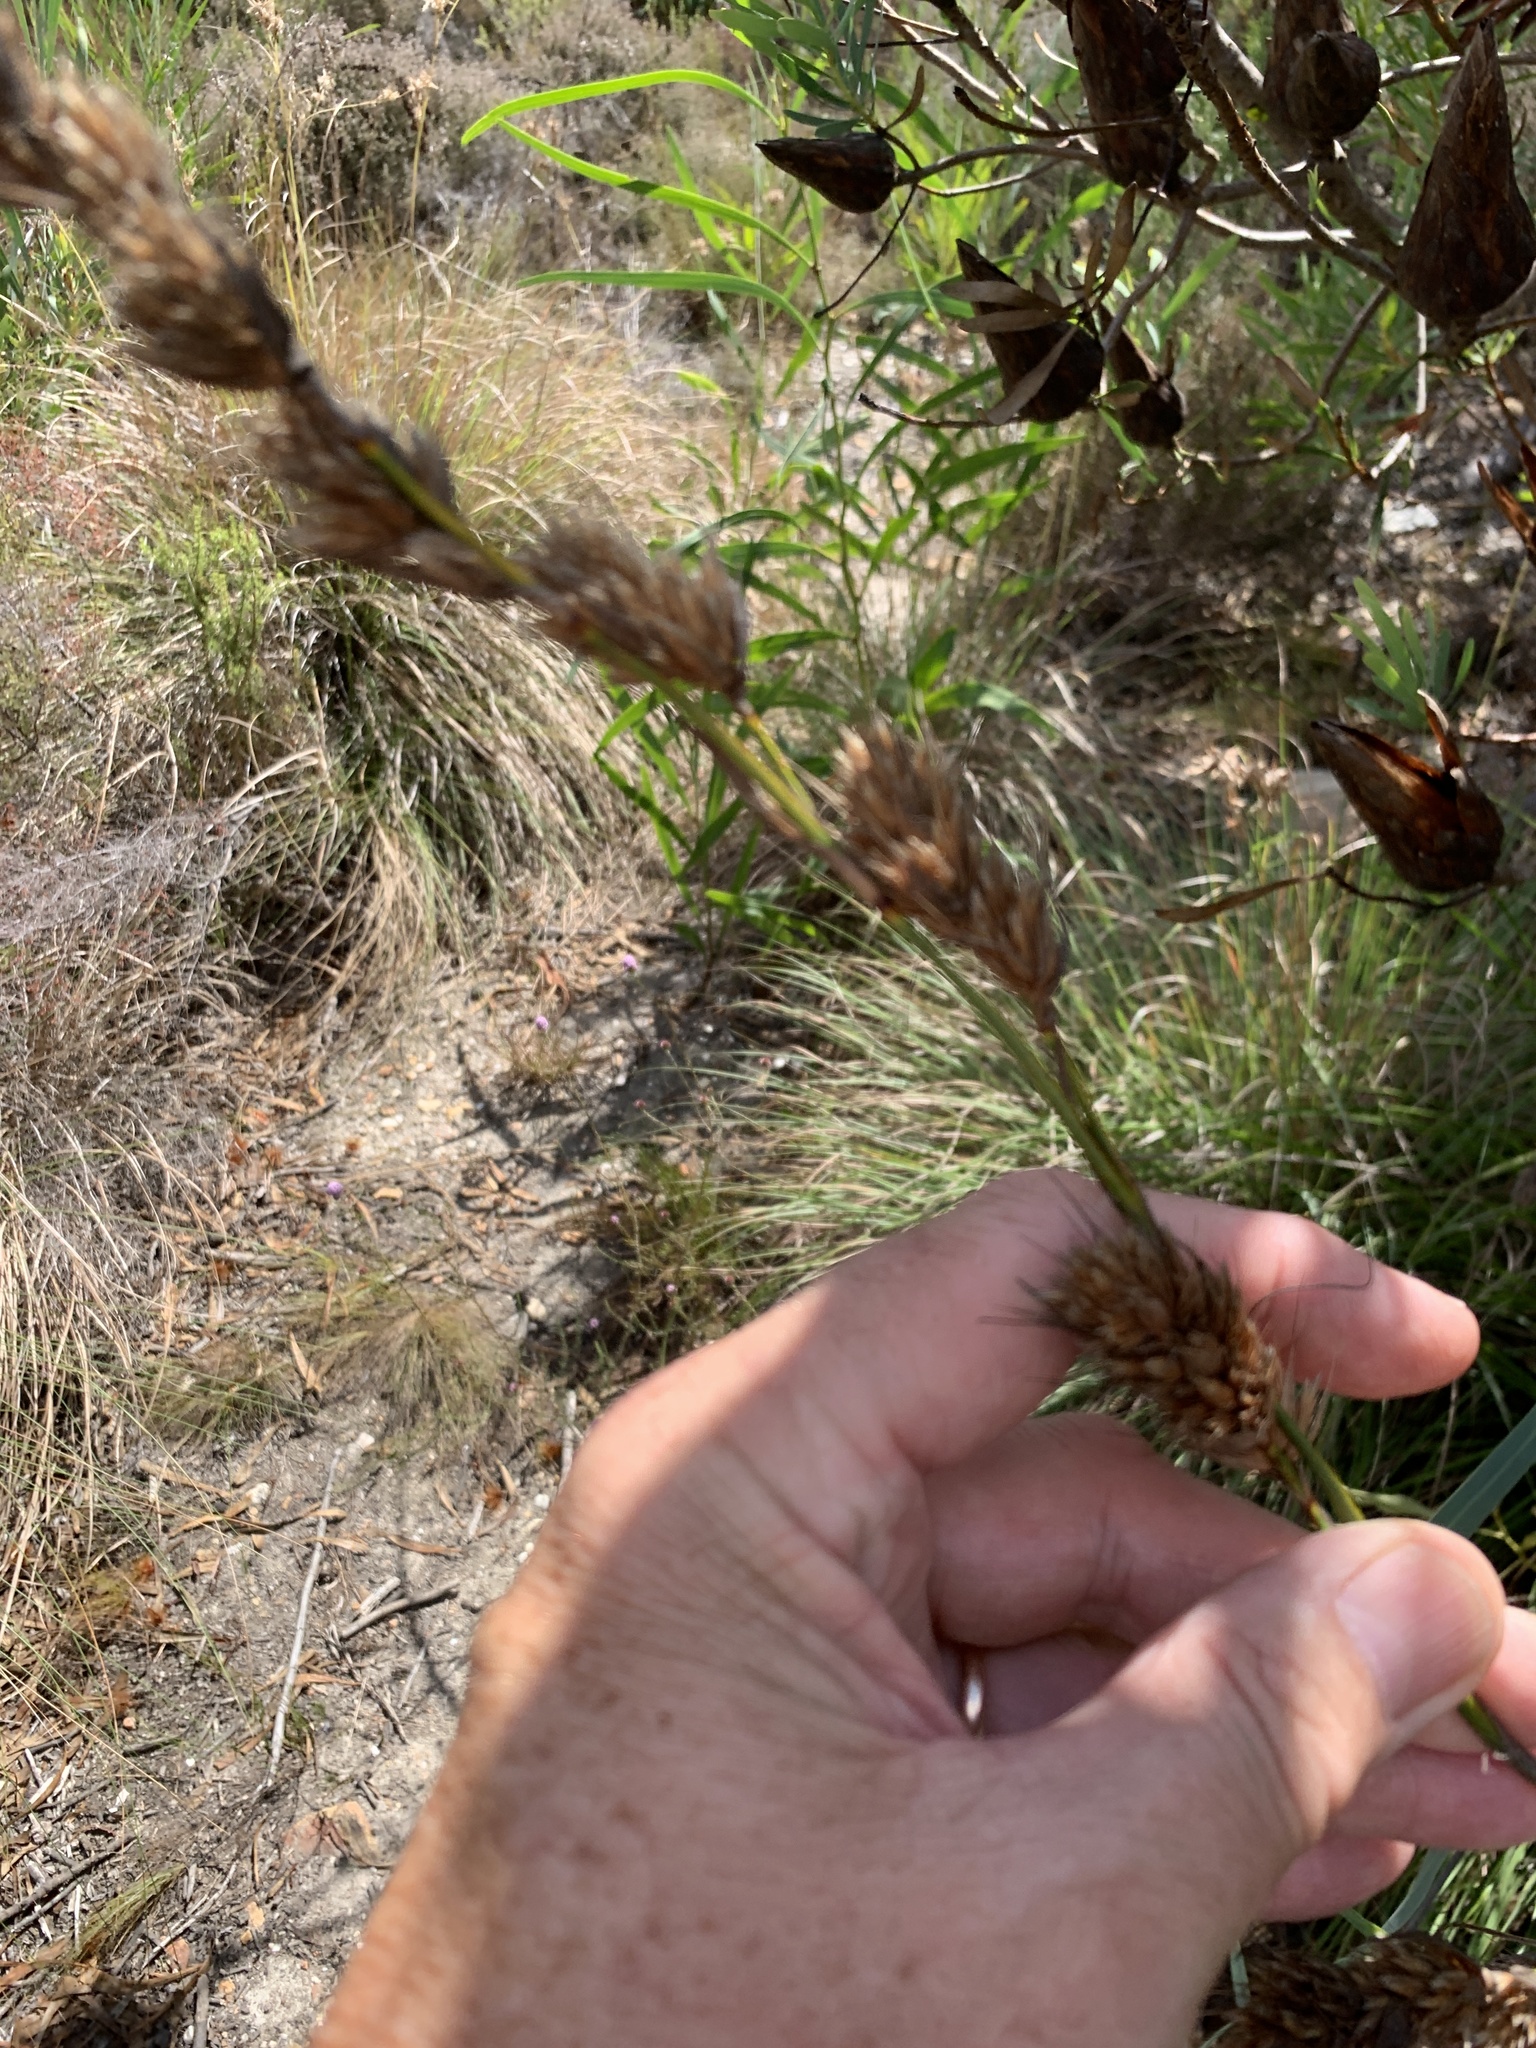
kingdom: Plantae
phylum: Tracheophyta
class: Liliopsida
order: Poales
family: Cyperaceae
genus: Tetraria
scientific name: Tetraria bromoides
